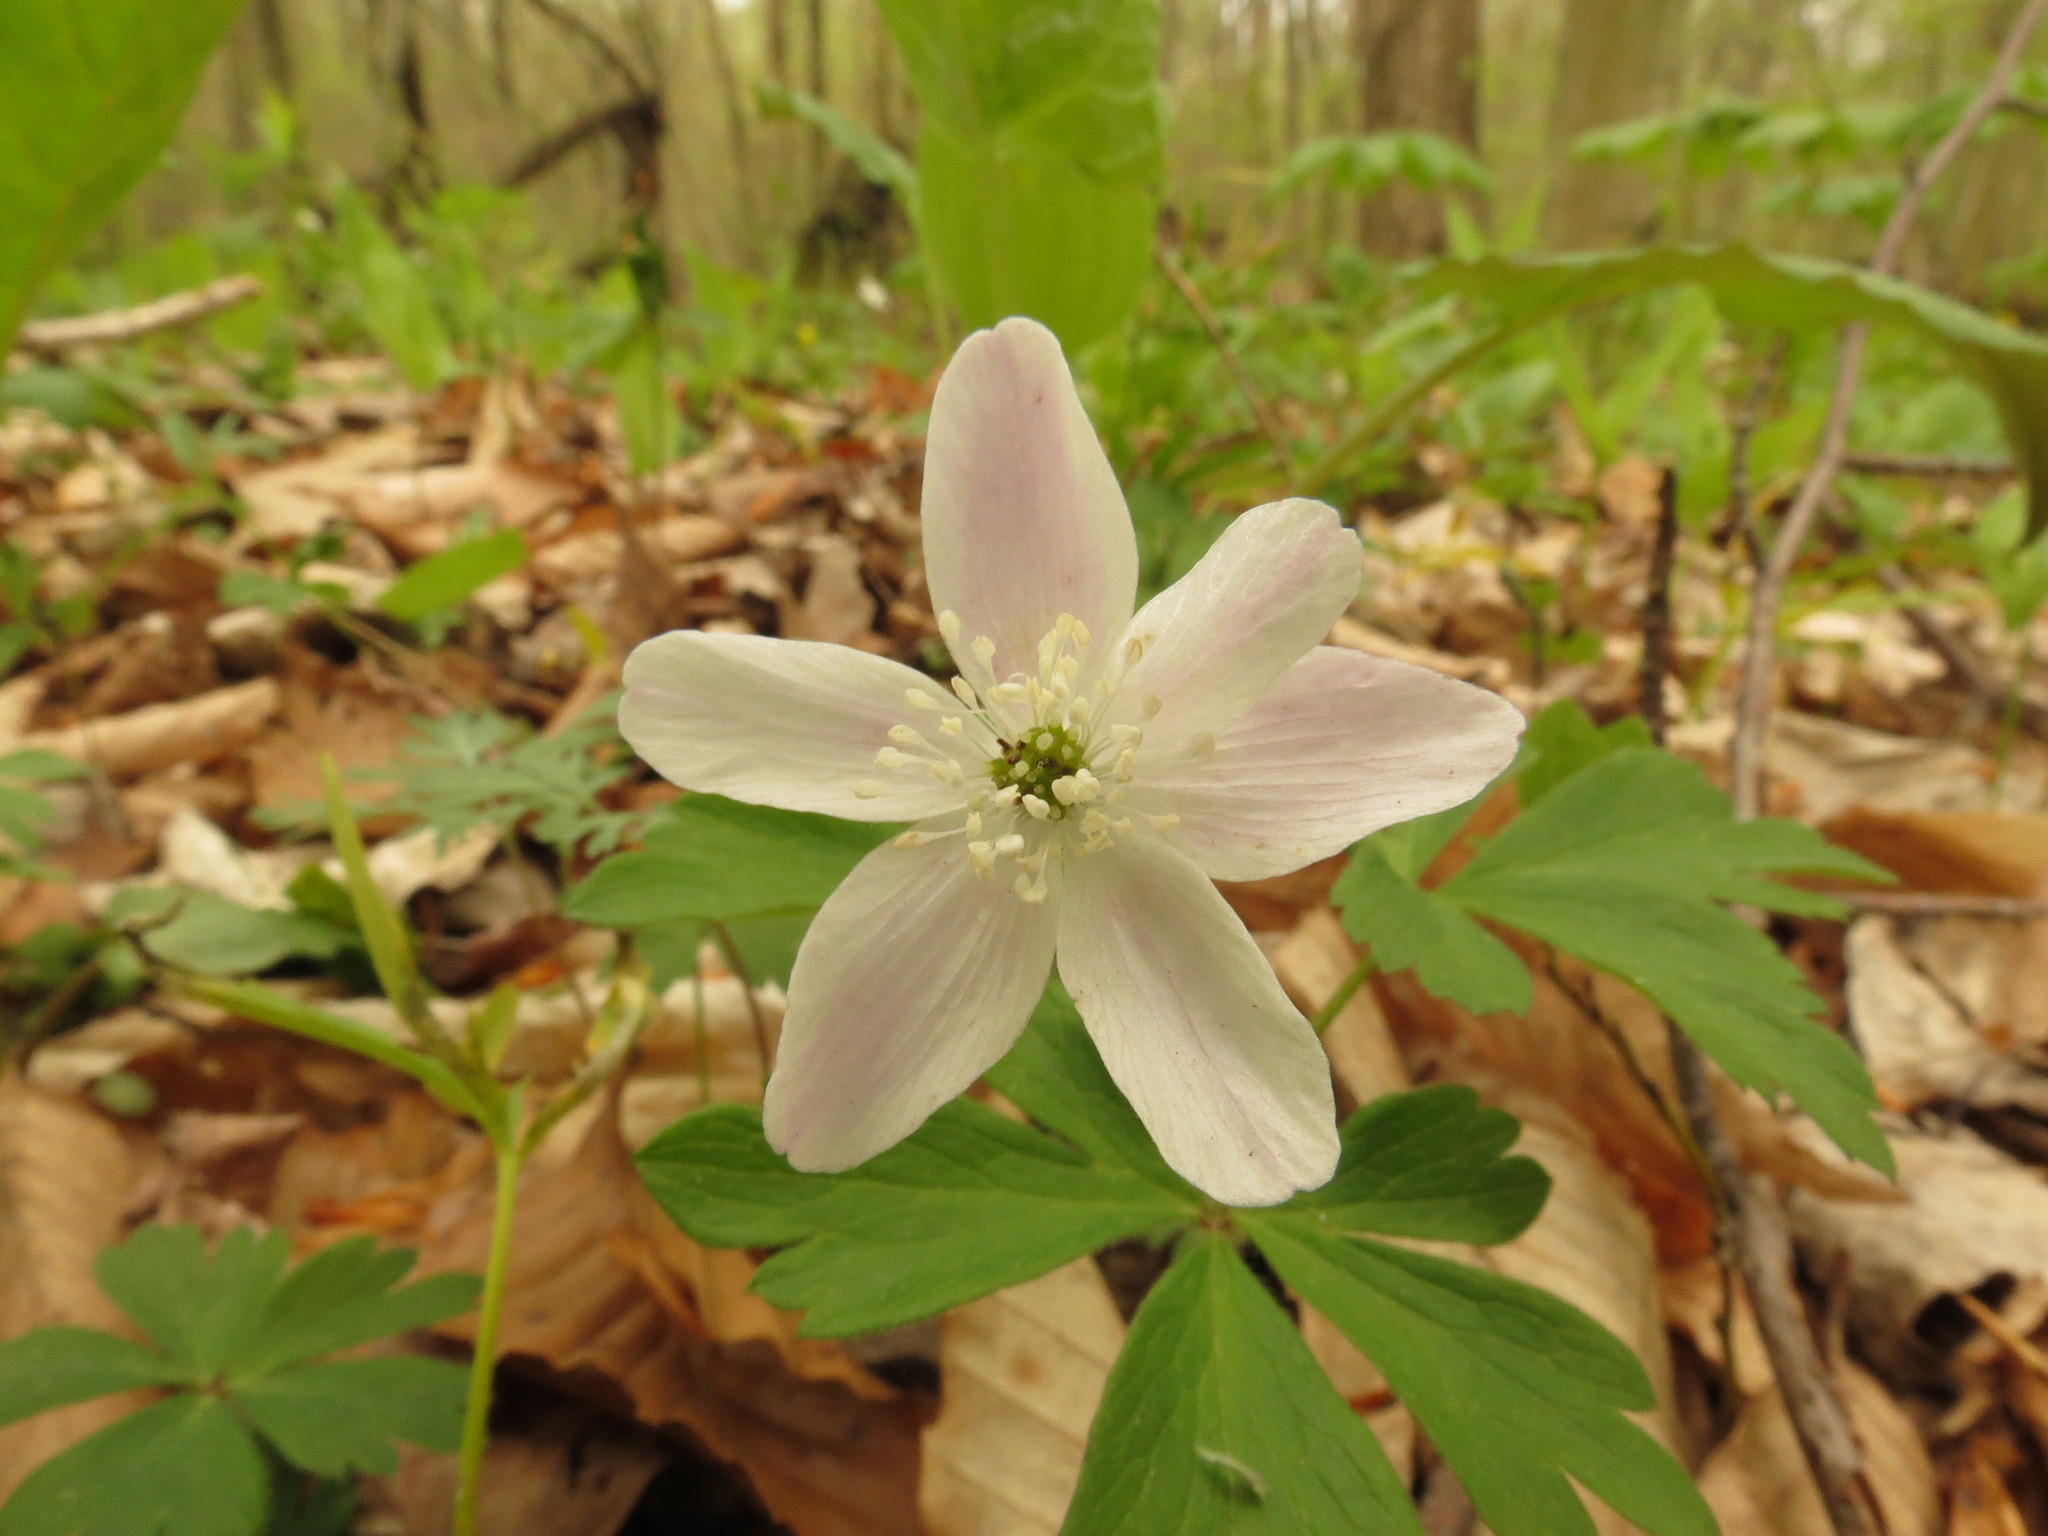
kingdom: Plantae
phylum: Tracheophyta
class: Magnoliopsida
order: Ranunculales
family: Ranunculaceae
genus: Anemone
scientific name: Anemone quinquefolia
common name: Wood anemone
